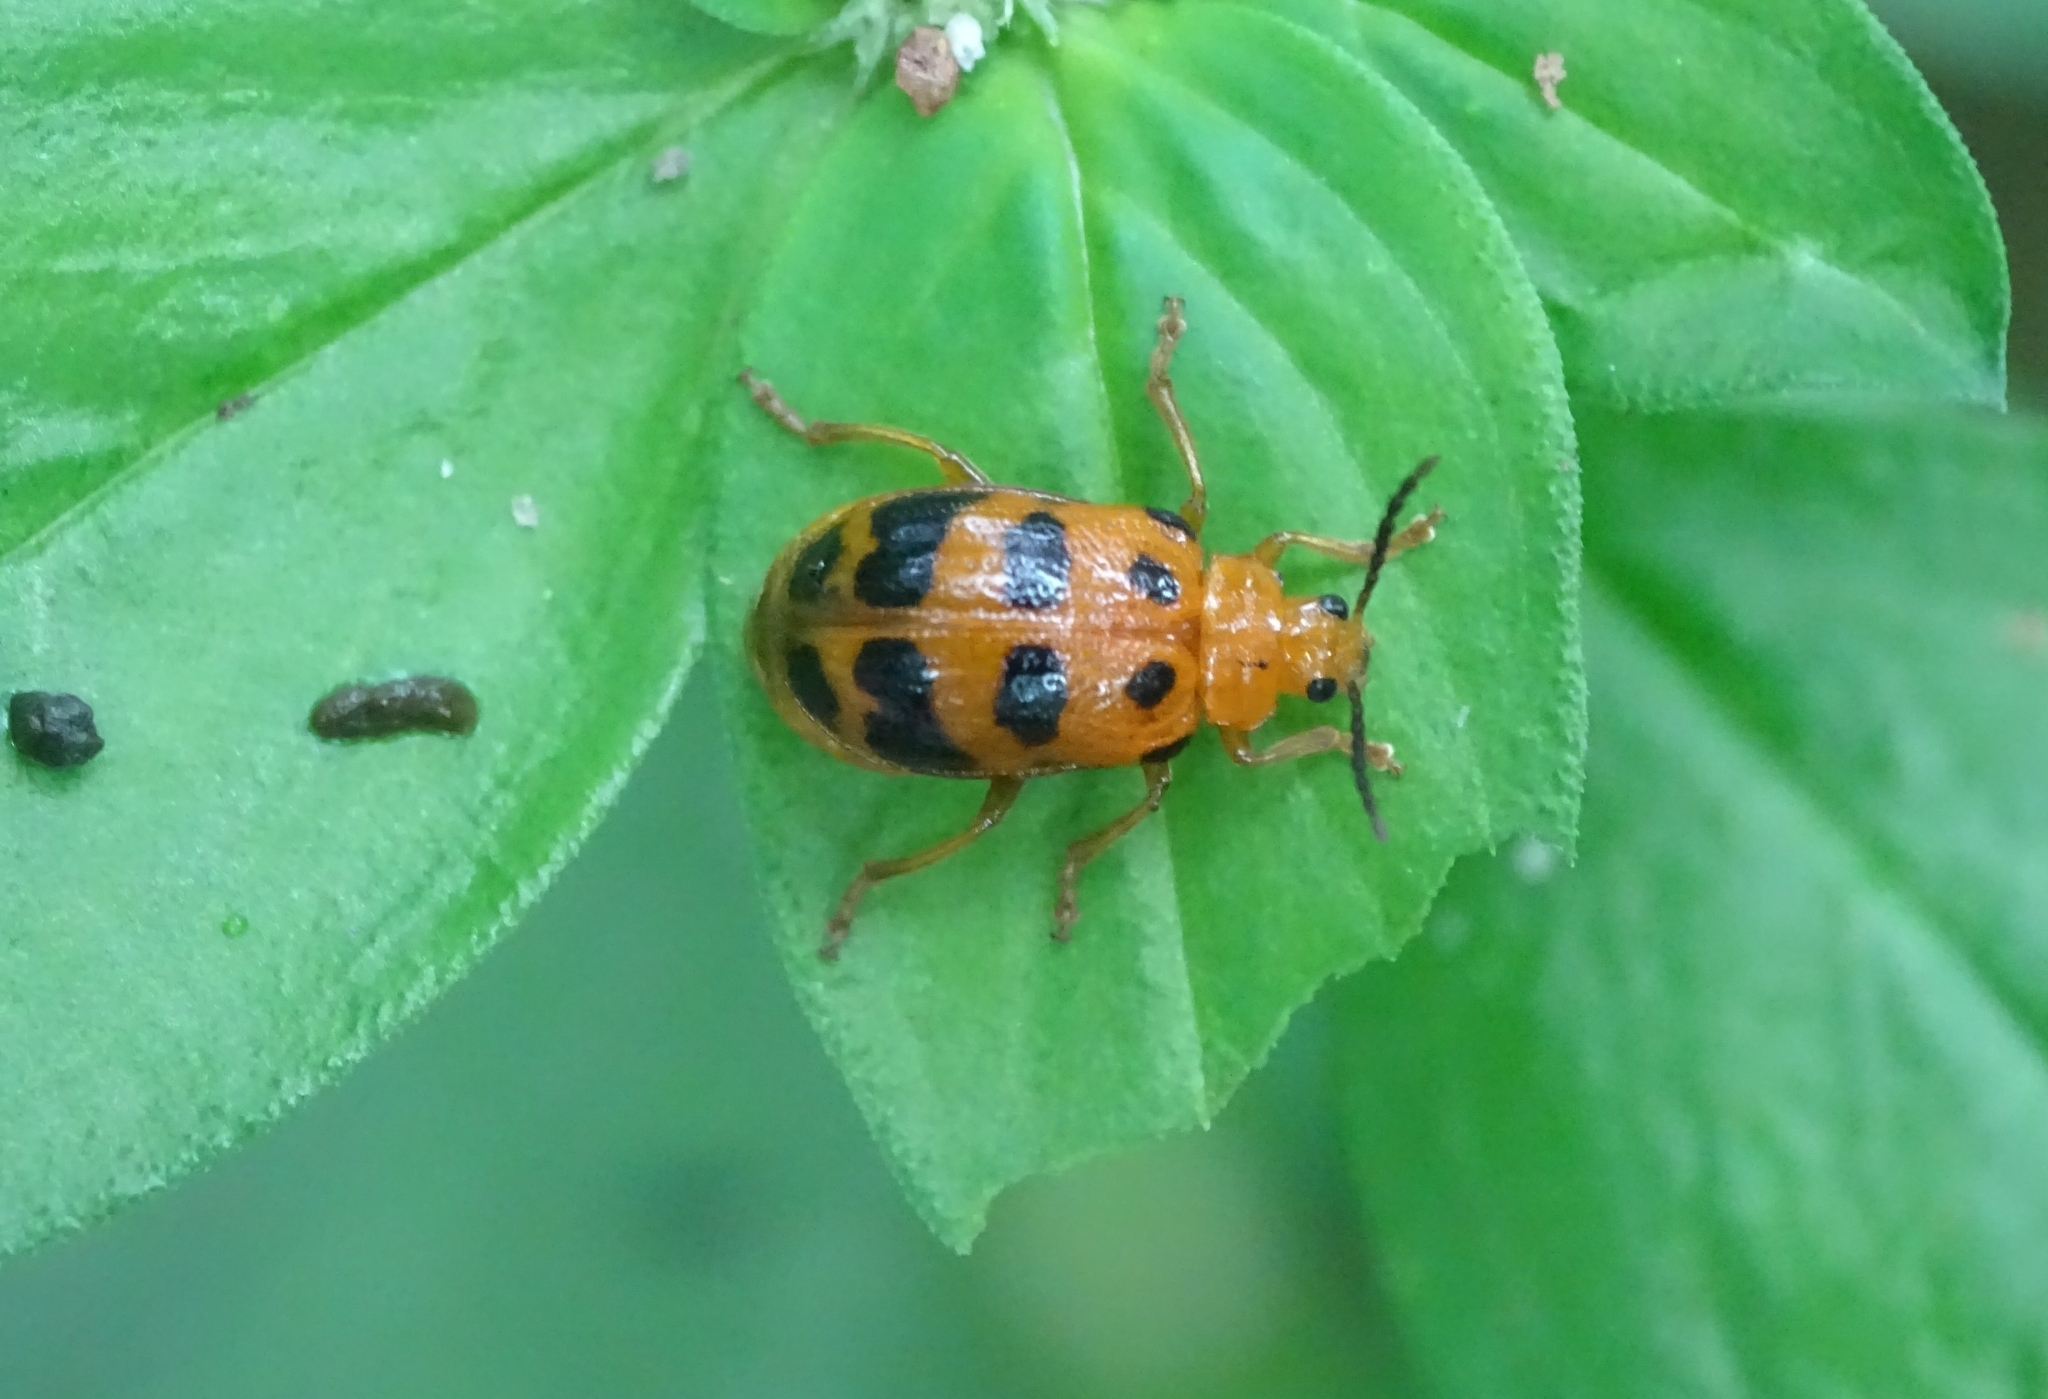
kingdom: Animalia
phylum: Arthropoda
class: Insecta
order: Coleoptera
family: Chrysomelidae
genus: Sphenoraia
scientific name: Sphenoraia
